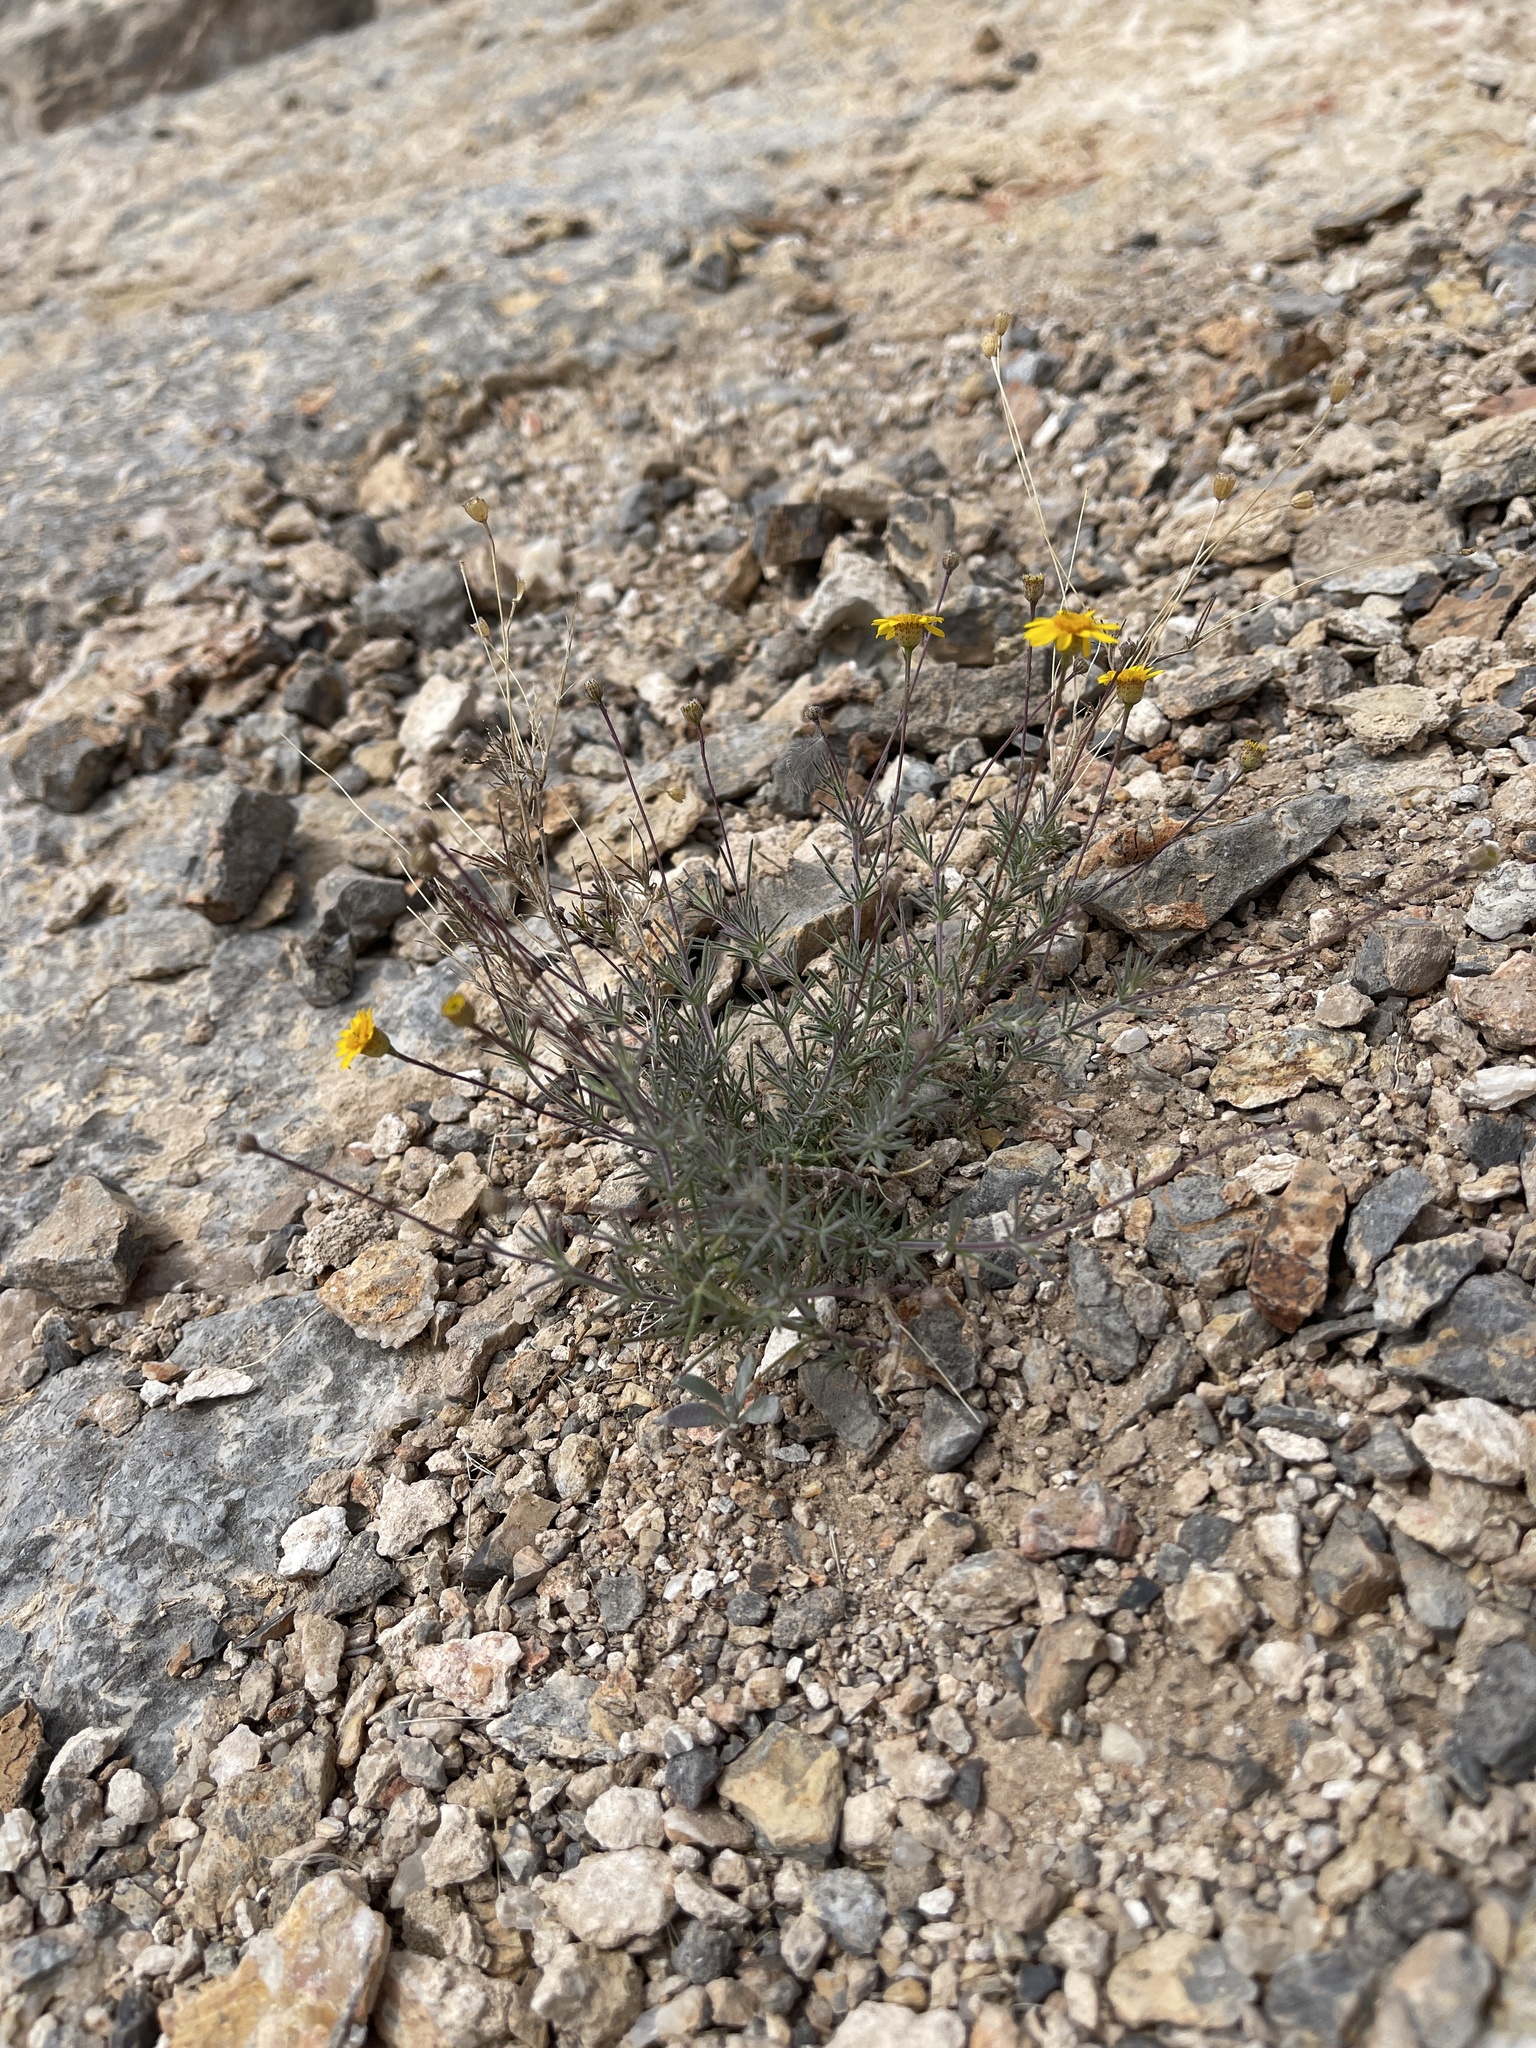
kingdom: Plantae
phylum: Tracheophyta
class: Magnoliopsida
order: Asterales
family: Asteraceae
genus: Thymophylla
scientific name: Thymophylla pentachaeta
